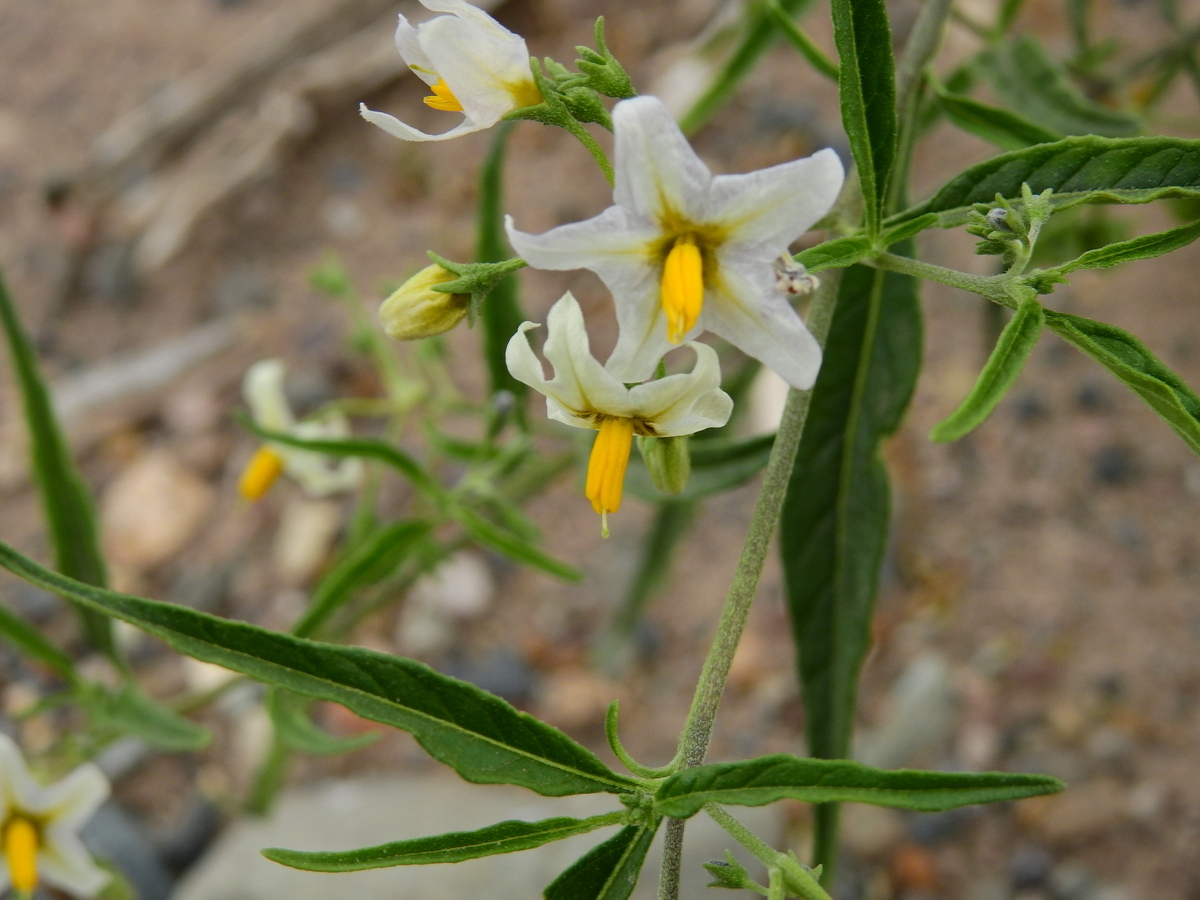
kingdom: Plantae
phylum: Tracheophyta
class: Magnoliopsida
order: Solanales
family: Solanaceae
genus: Solanum
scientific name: Solanum salicifolium
